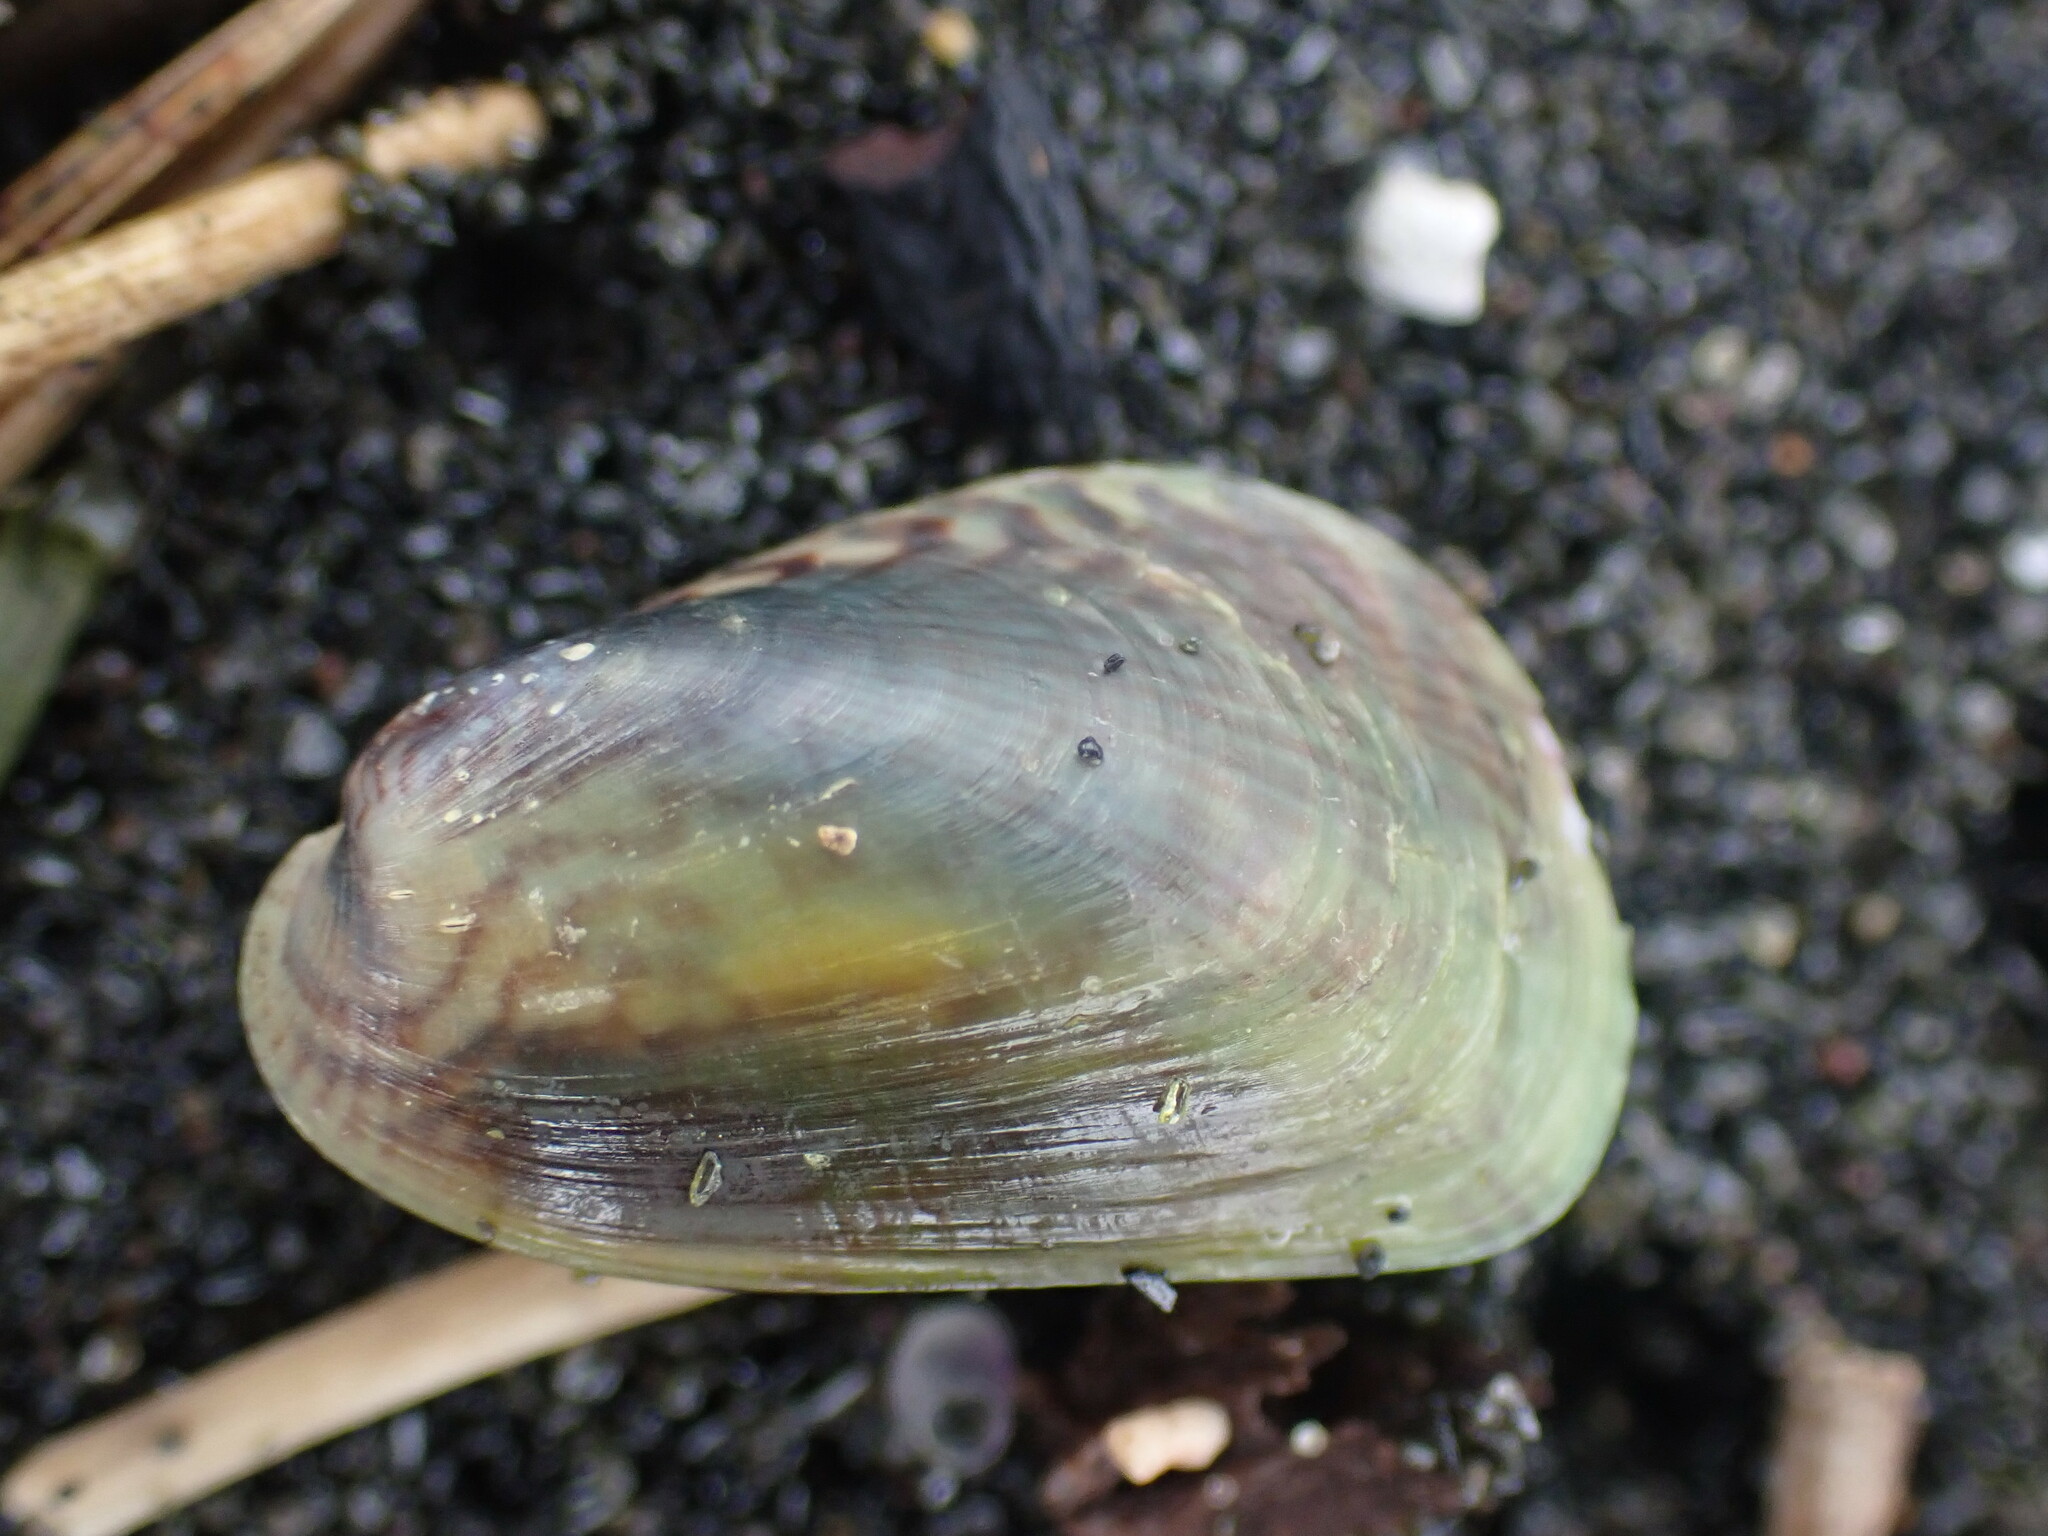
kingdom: Animalia
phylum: Mollusca
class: Bivalvia
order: Mytilida
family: Mytilidae
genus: Arcuatula
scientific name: Arcuatula senhousia
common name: Asian mussel
